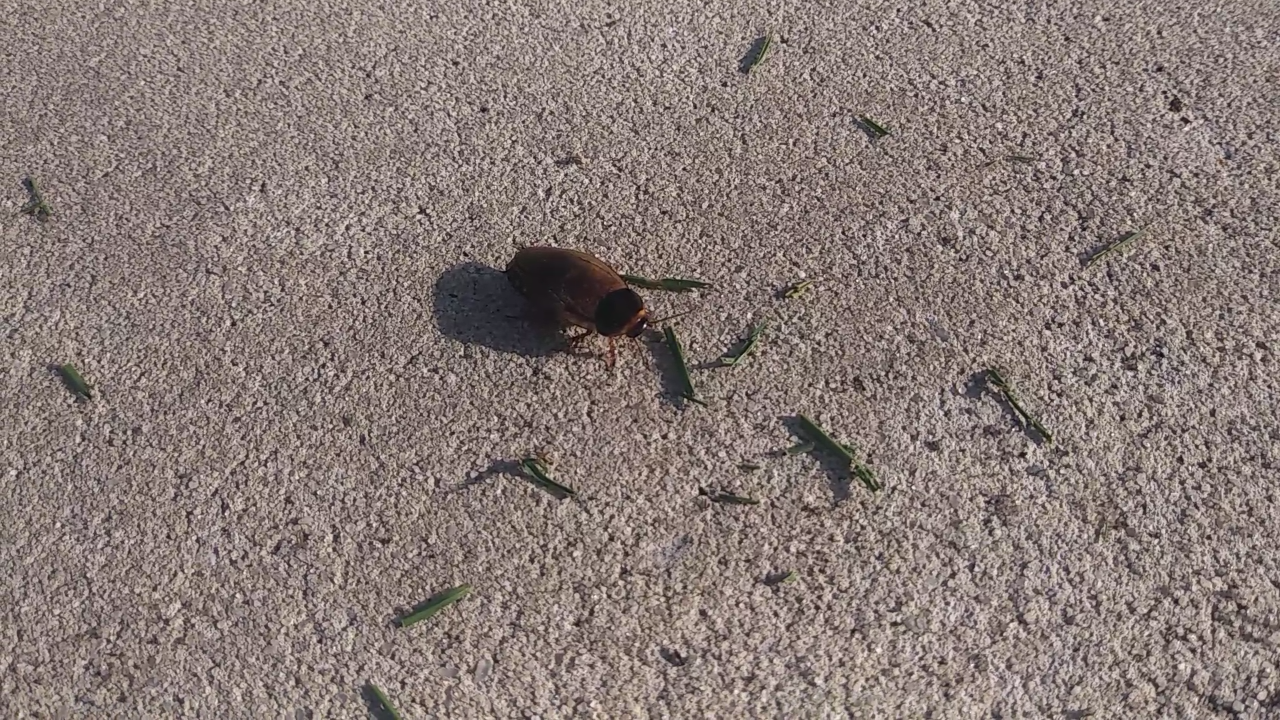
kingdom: Animalia
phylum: Arthropoda
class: Insecta
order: Blattodea
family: Blaberidae
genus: Pycnoscelus
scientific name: Pycnoscelus surinamensis
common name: Surinam cockroach
